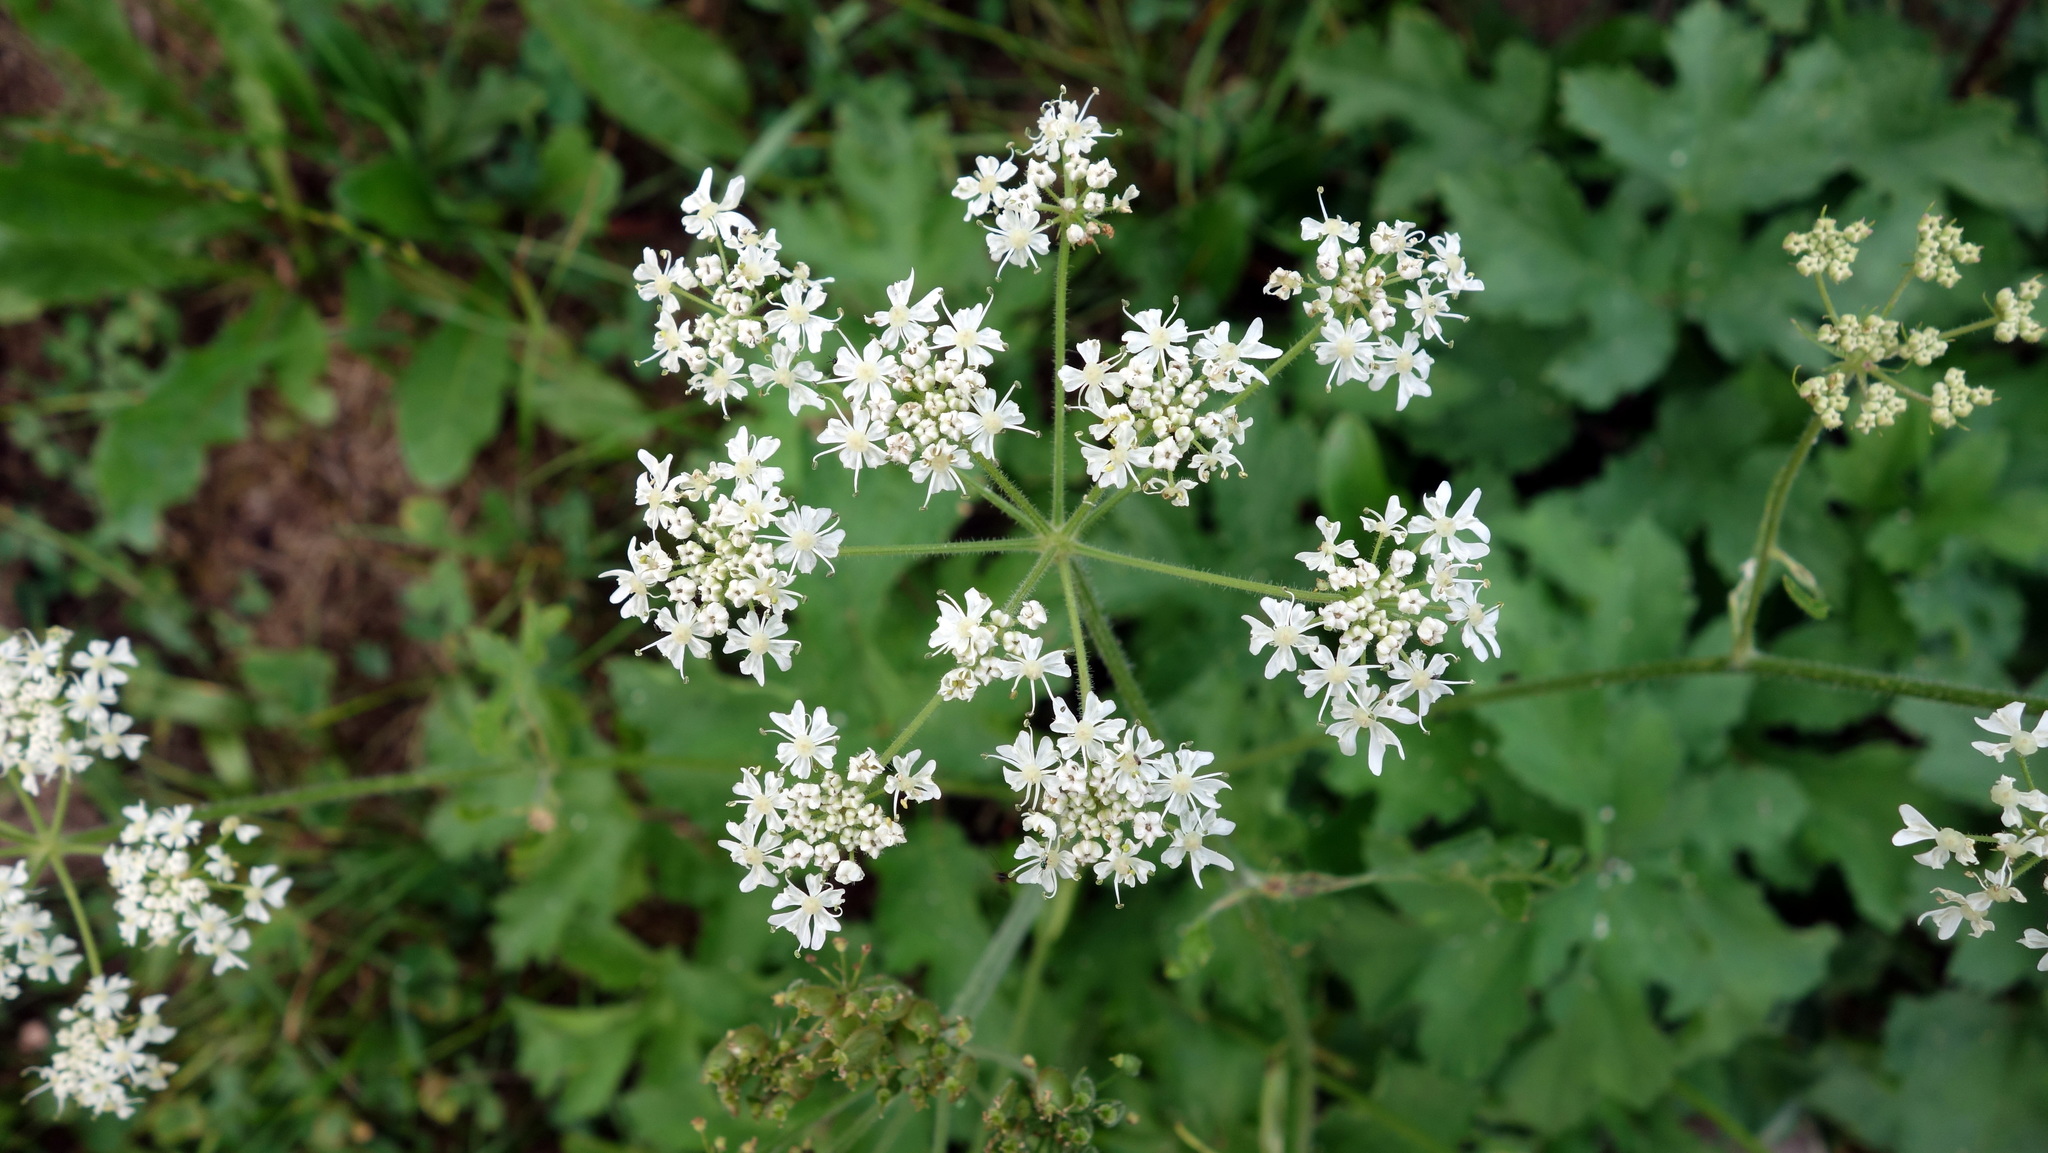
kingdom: Plantae
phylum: Tracheophyta
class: Magnoliopsida
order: Apiales
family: Apiaceae
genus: Heracleum
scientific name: Heracleum sphondylium
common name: Hogweed
